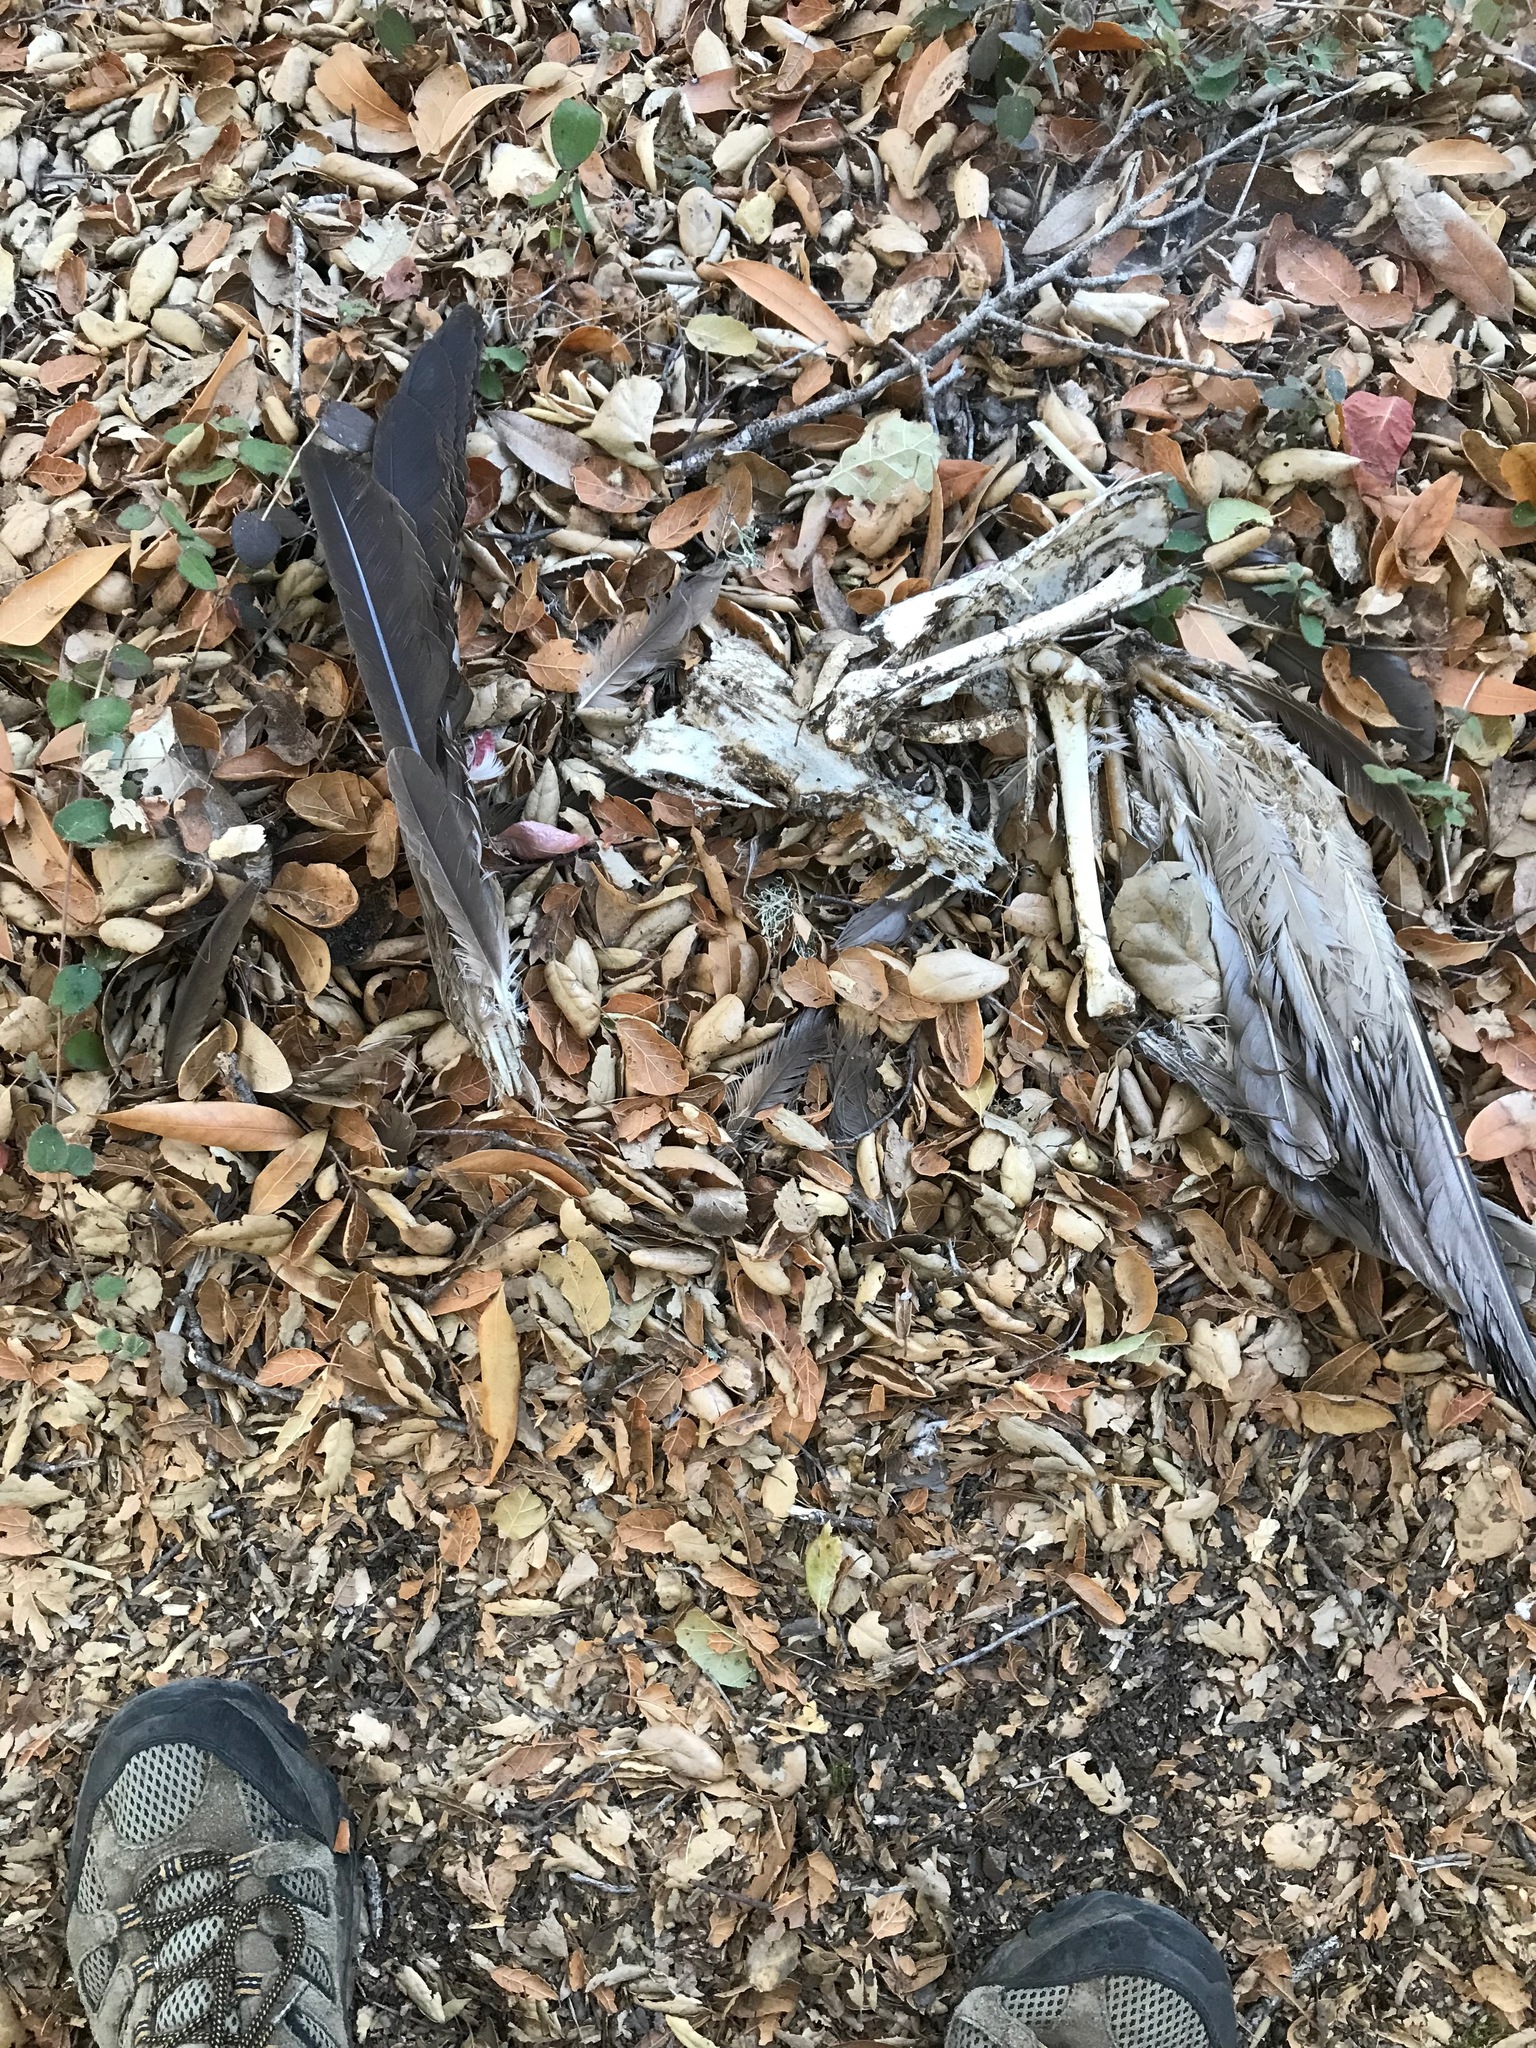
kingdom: Animalia
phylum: Chordata
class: Aves
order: Accipitriformes
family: Cathartidae
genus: Cathartes
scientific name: Cathartes aura
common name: Turkey vulture
